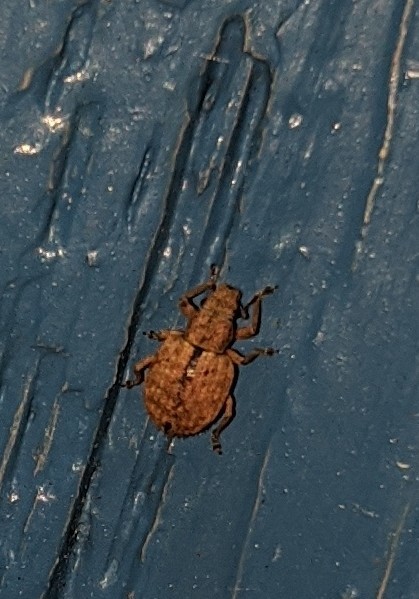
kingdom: Animalia
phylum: Arthropoda
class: Insecta
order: Coleoptera
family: Curculionidae
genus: Strophosoma
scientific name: Strophosoma melanogrammum
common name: Weevil
